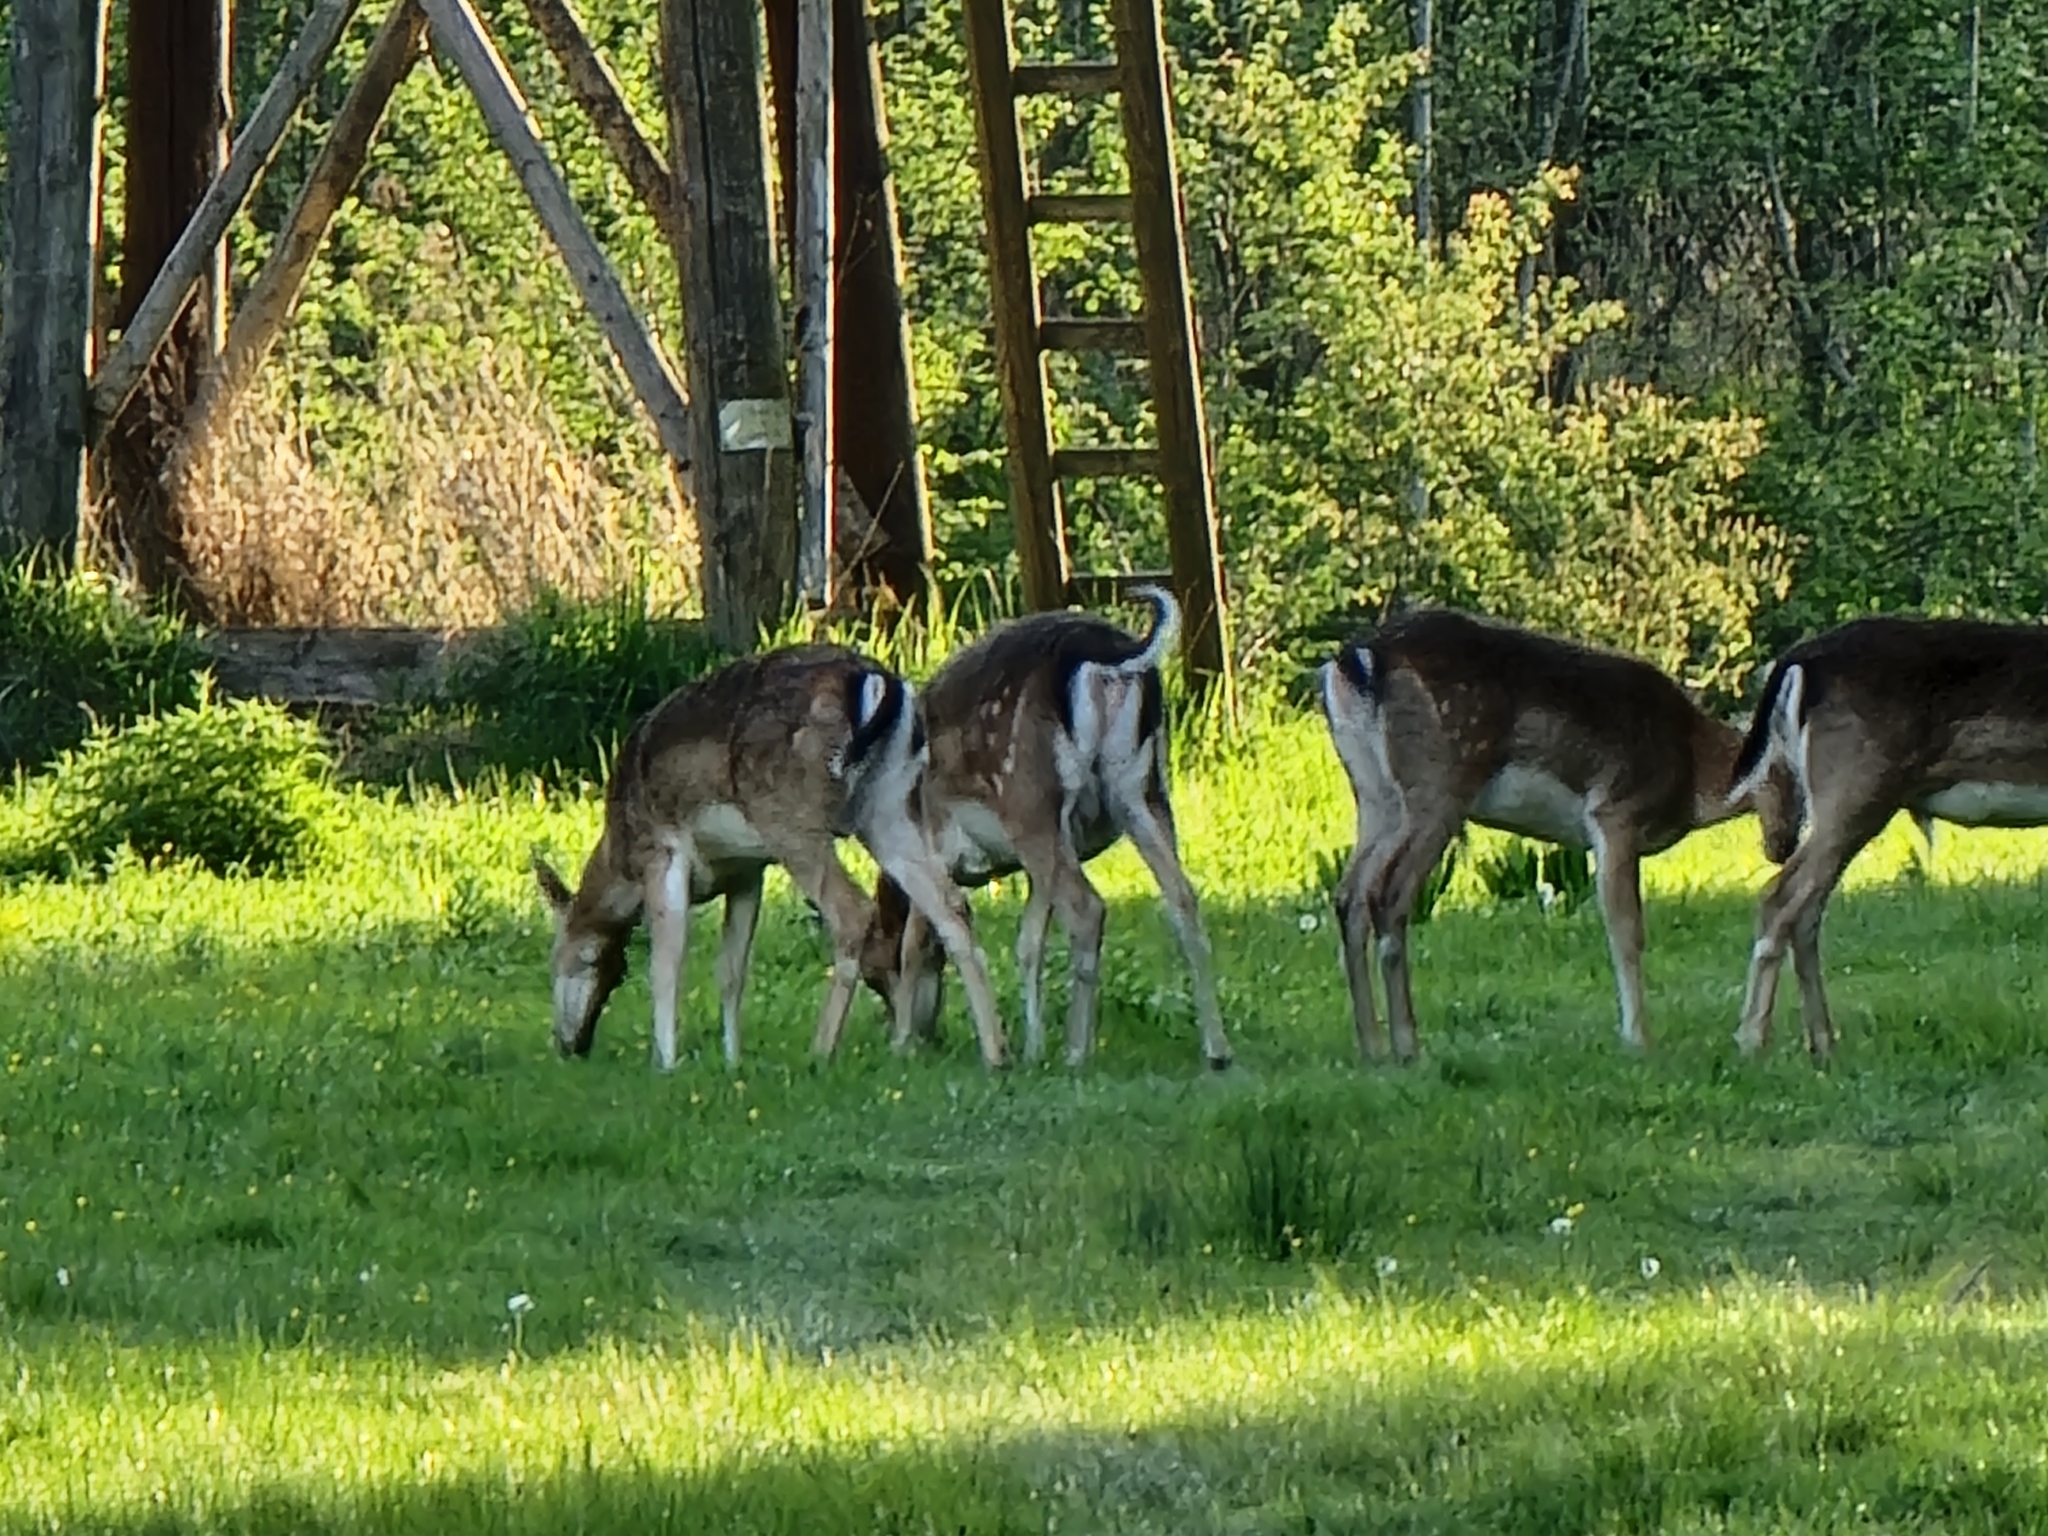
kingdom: Animalia
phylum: Chordata
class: Mammalia
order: Artiodactyla
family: Cervidae
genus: Dama
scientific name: Dama dama
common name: Fallow deer
